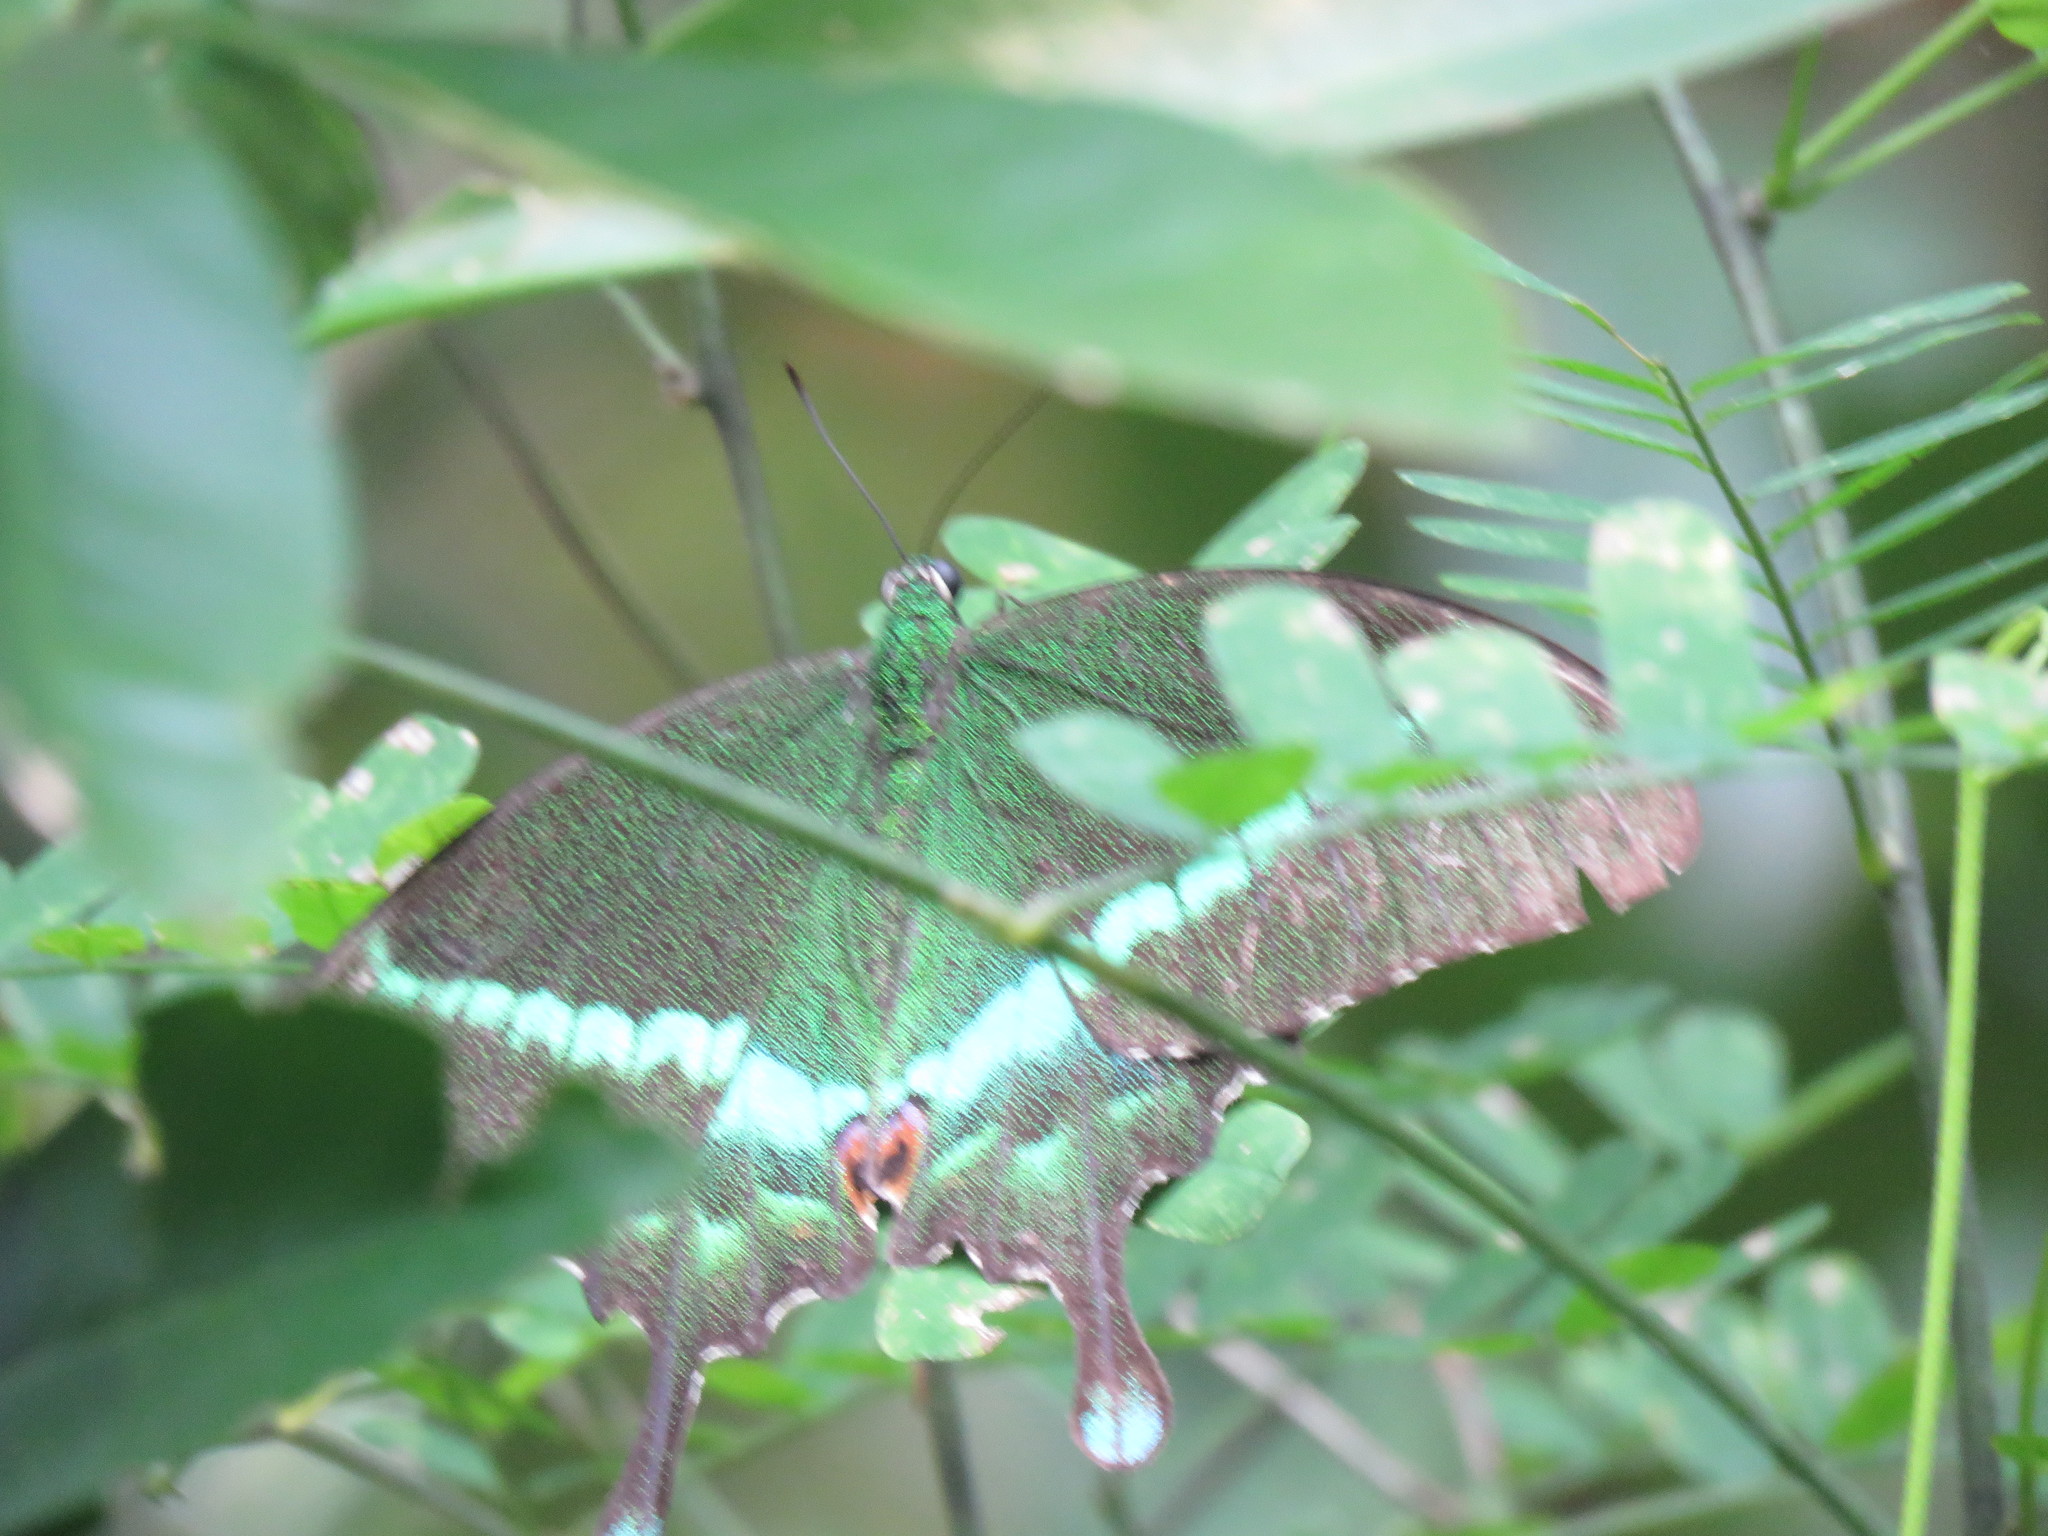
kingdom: Animalia
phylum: Arthropoda
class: Insecta
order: Lepidoptera
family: Papilionidae
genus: Papilio
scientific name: Papilio crino
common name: Common banded peacock
